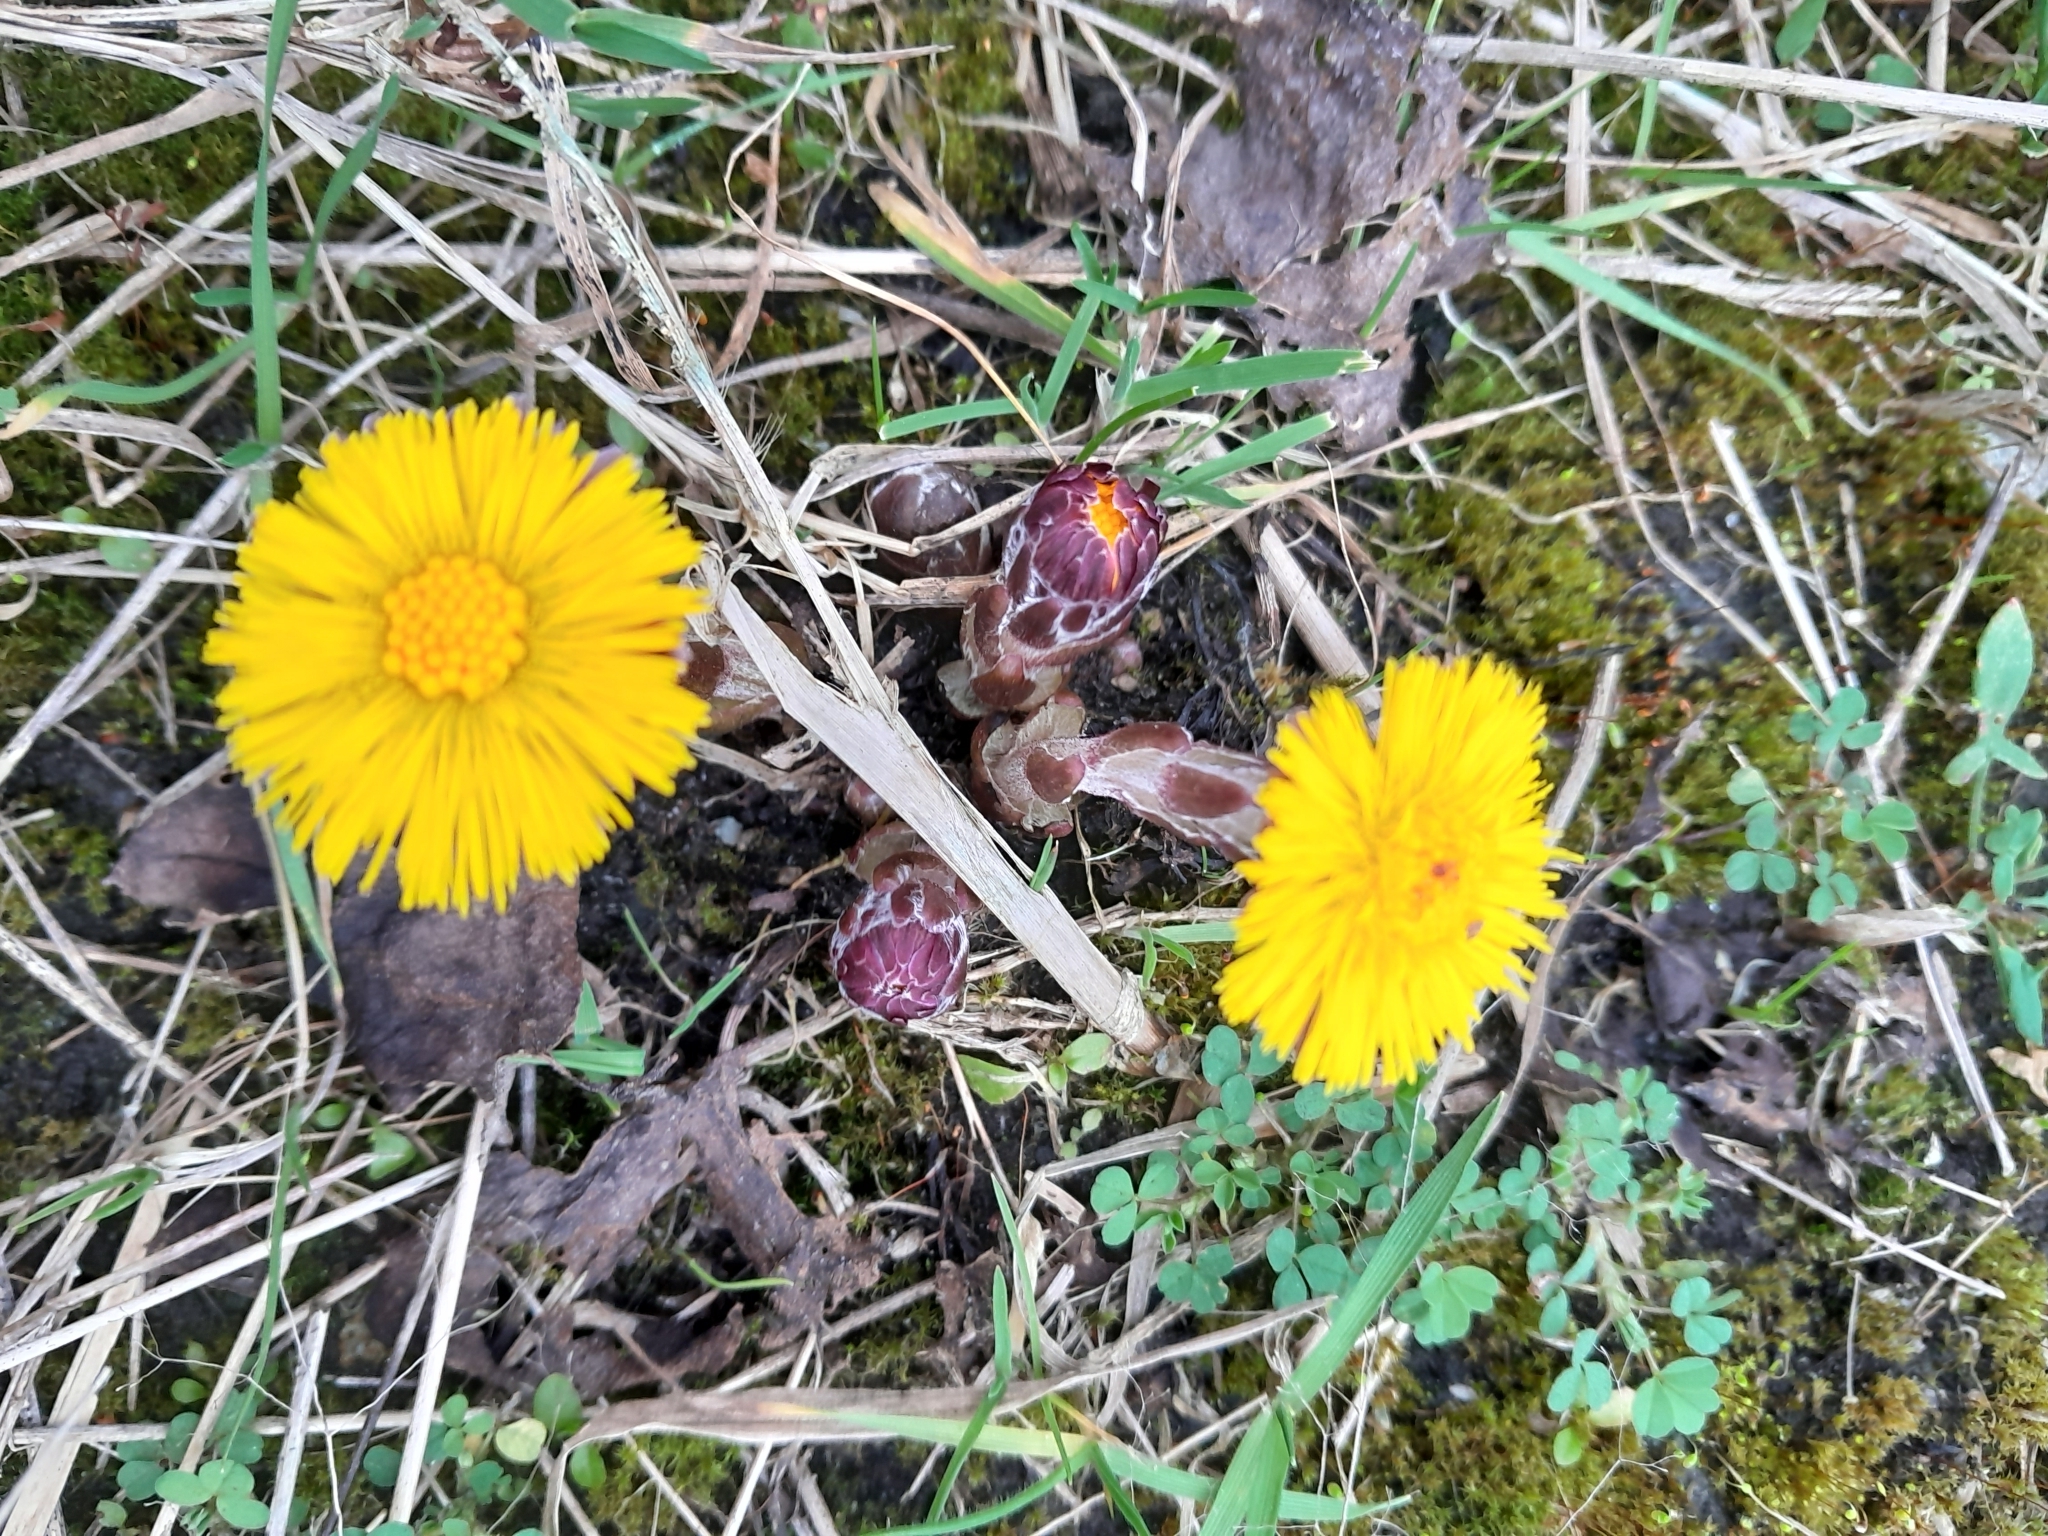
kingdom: Plantae
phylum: Tracheophyta
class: Magnoliopsida
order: Asterales
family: Asteraceae
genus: Tussilago
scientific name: Tussilago farfara
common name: Coltsfoot
